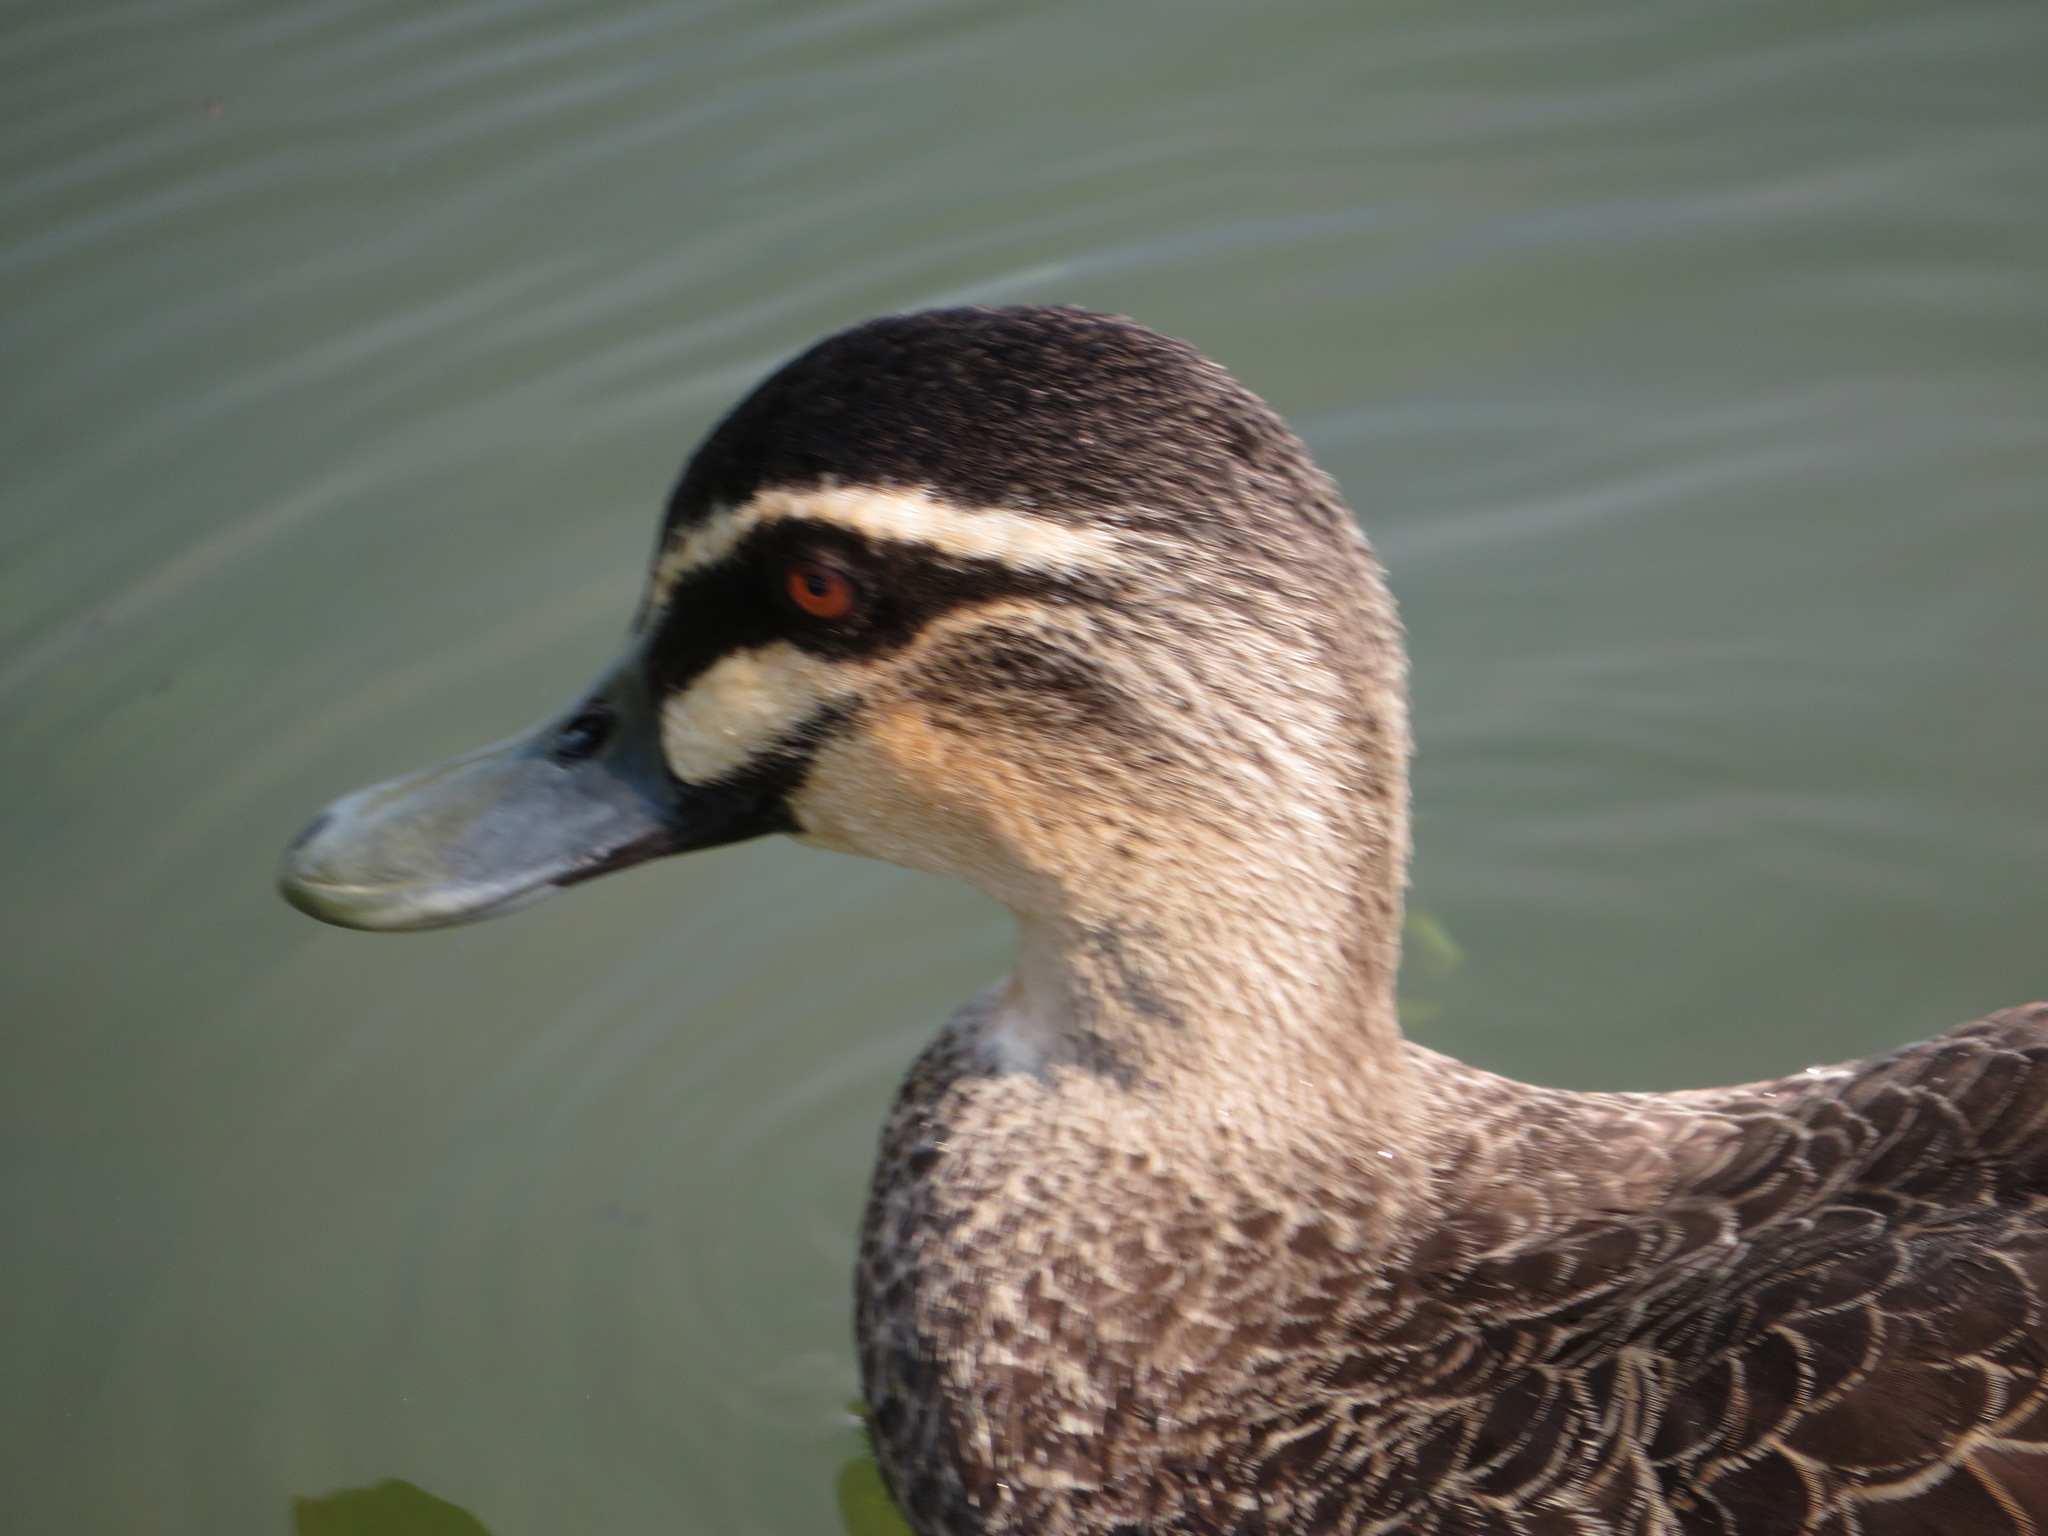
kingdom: Animalia
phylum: Chordata
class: Aves
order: Anseriformes
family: Anatidae
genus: Anas
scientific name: Anas superciliosa
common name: Pacific black duck
